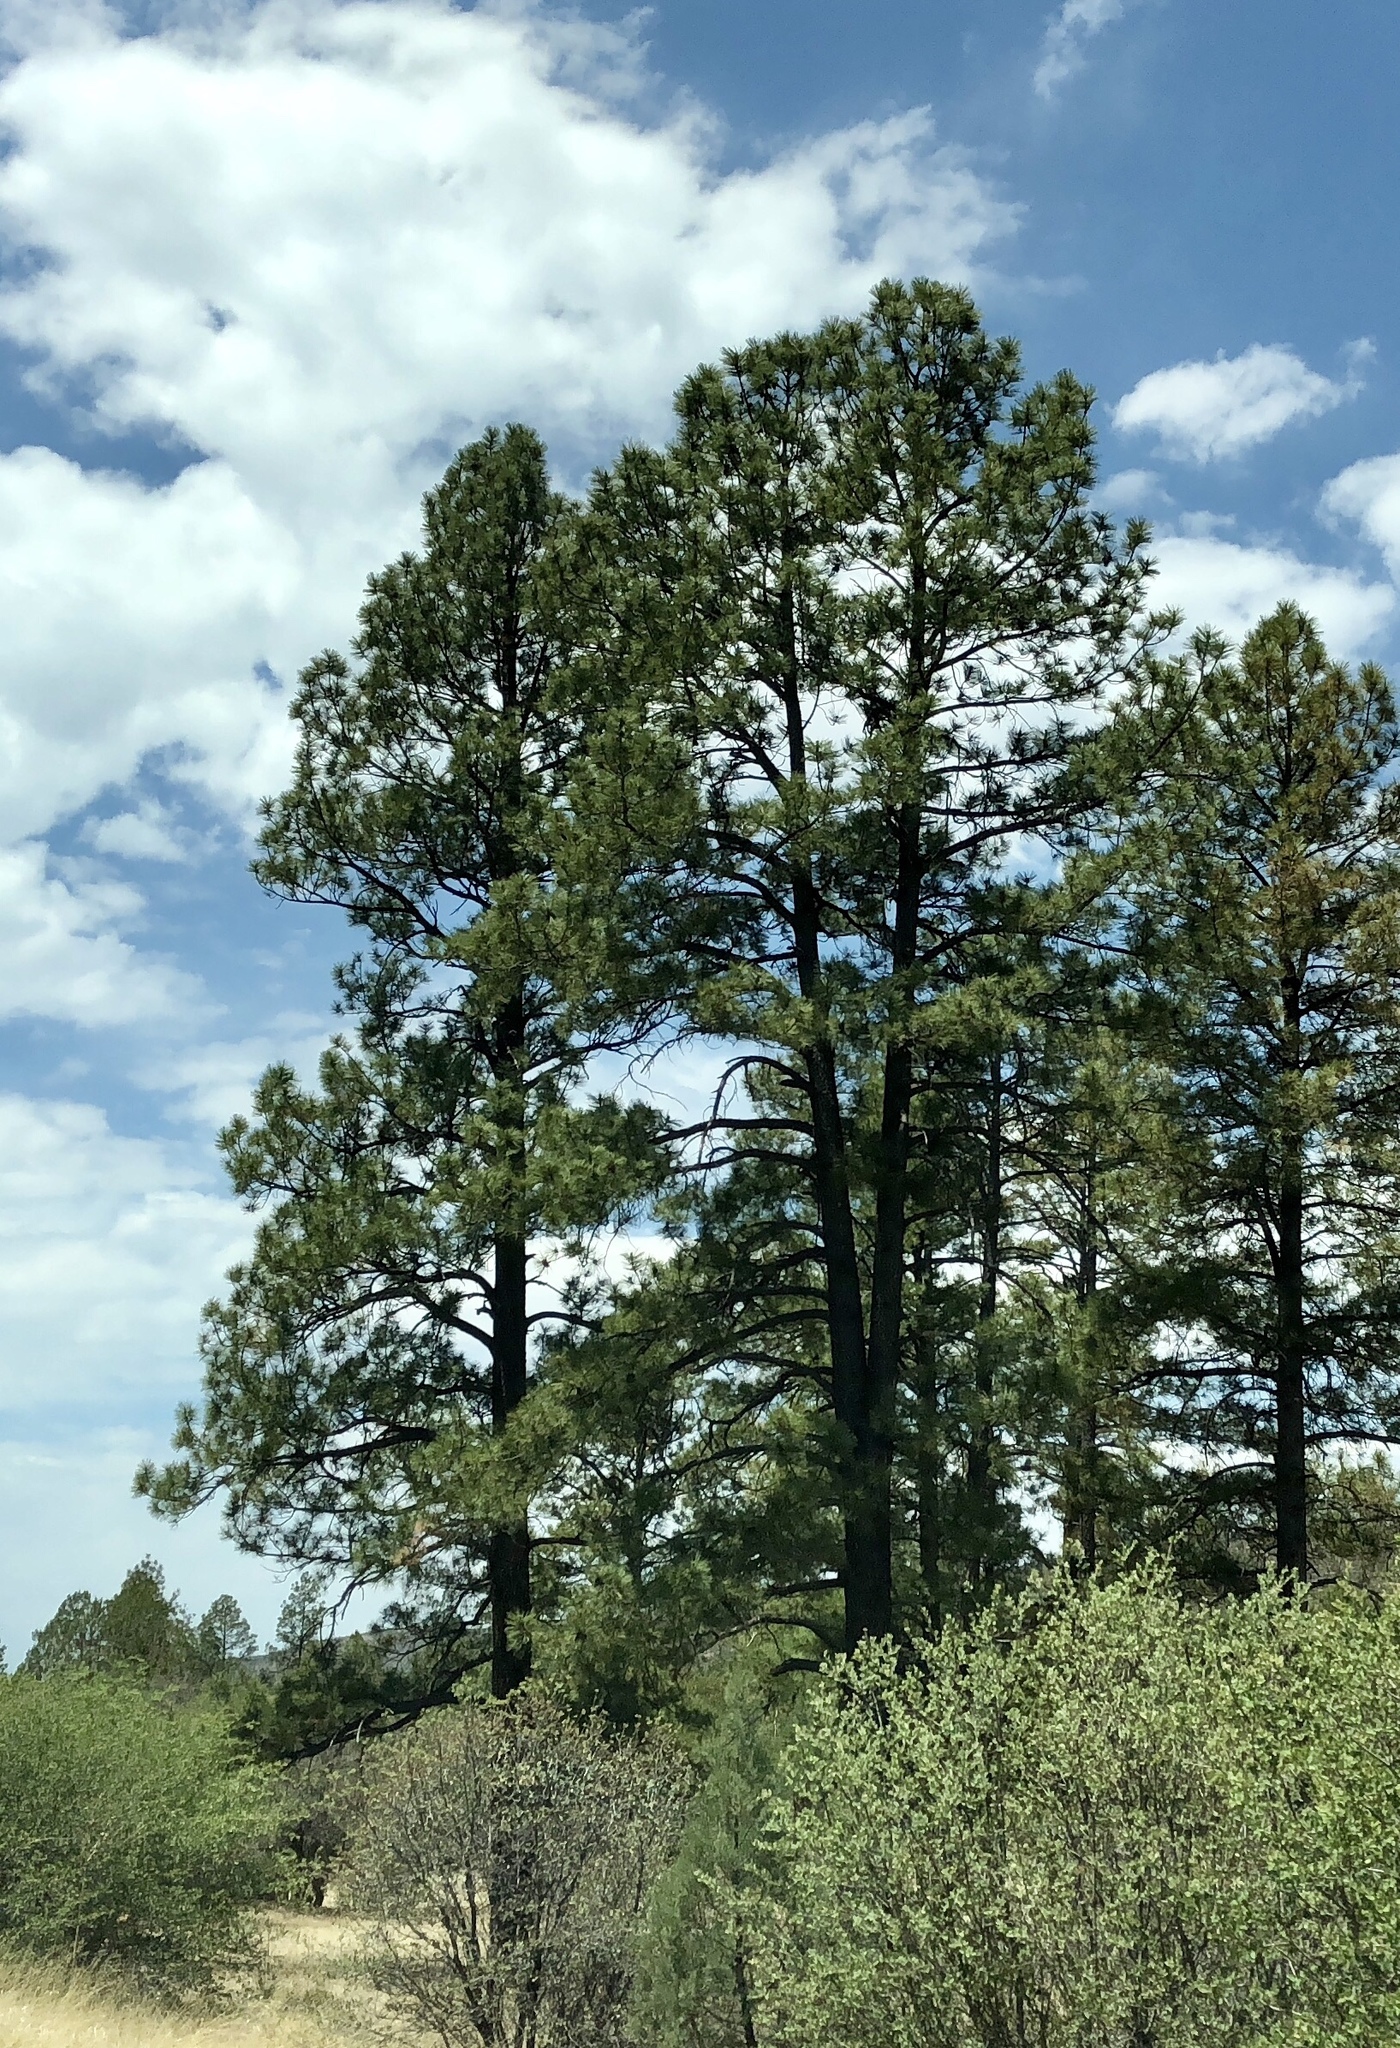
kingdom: Plantae
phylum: Tracheophyta
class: Pinopsida
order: Pinales
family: Pinaceae
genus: Pinus
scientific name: Pinus ponderosa
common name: Western yellow-pine
